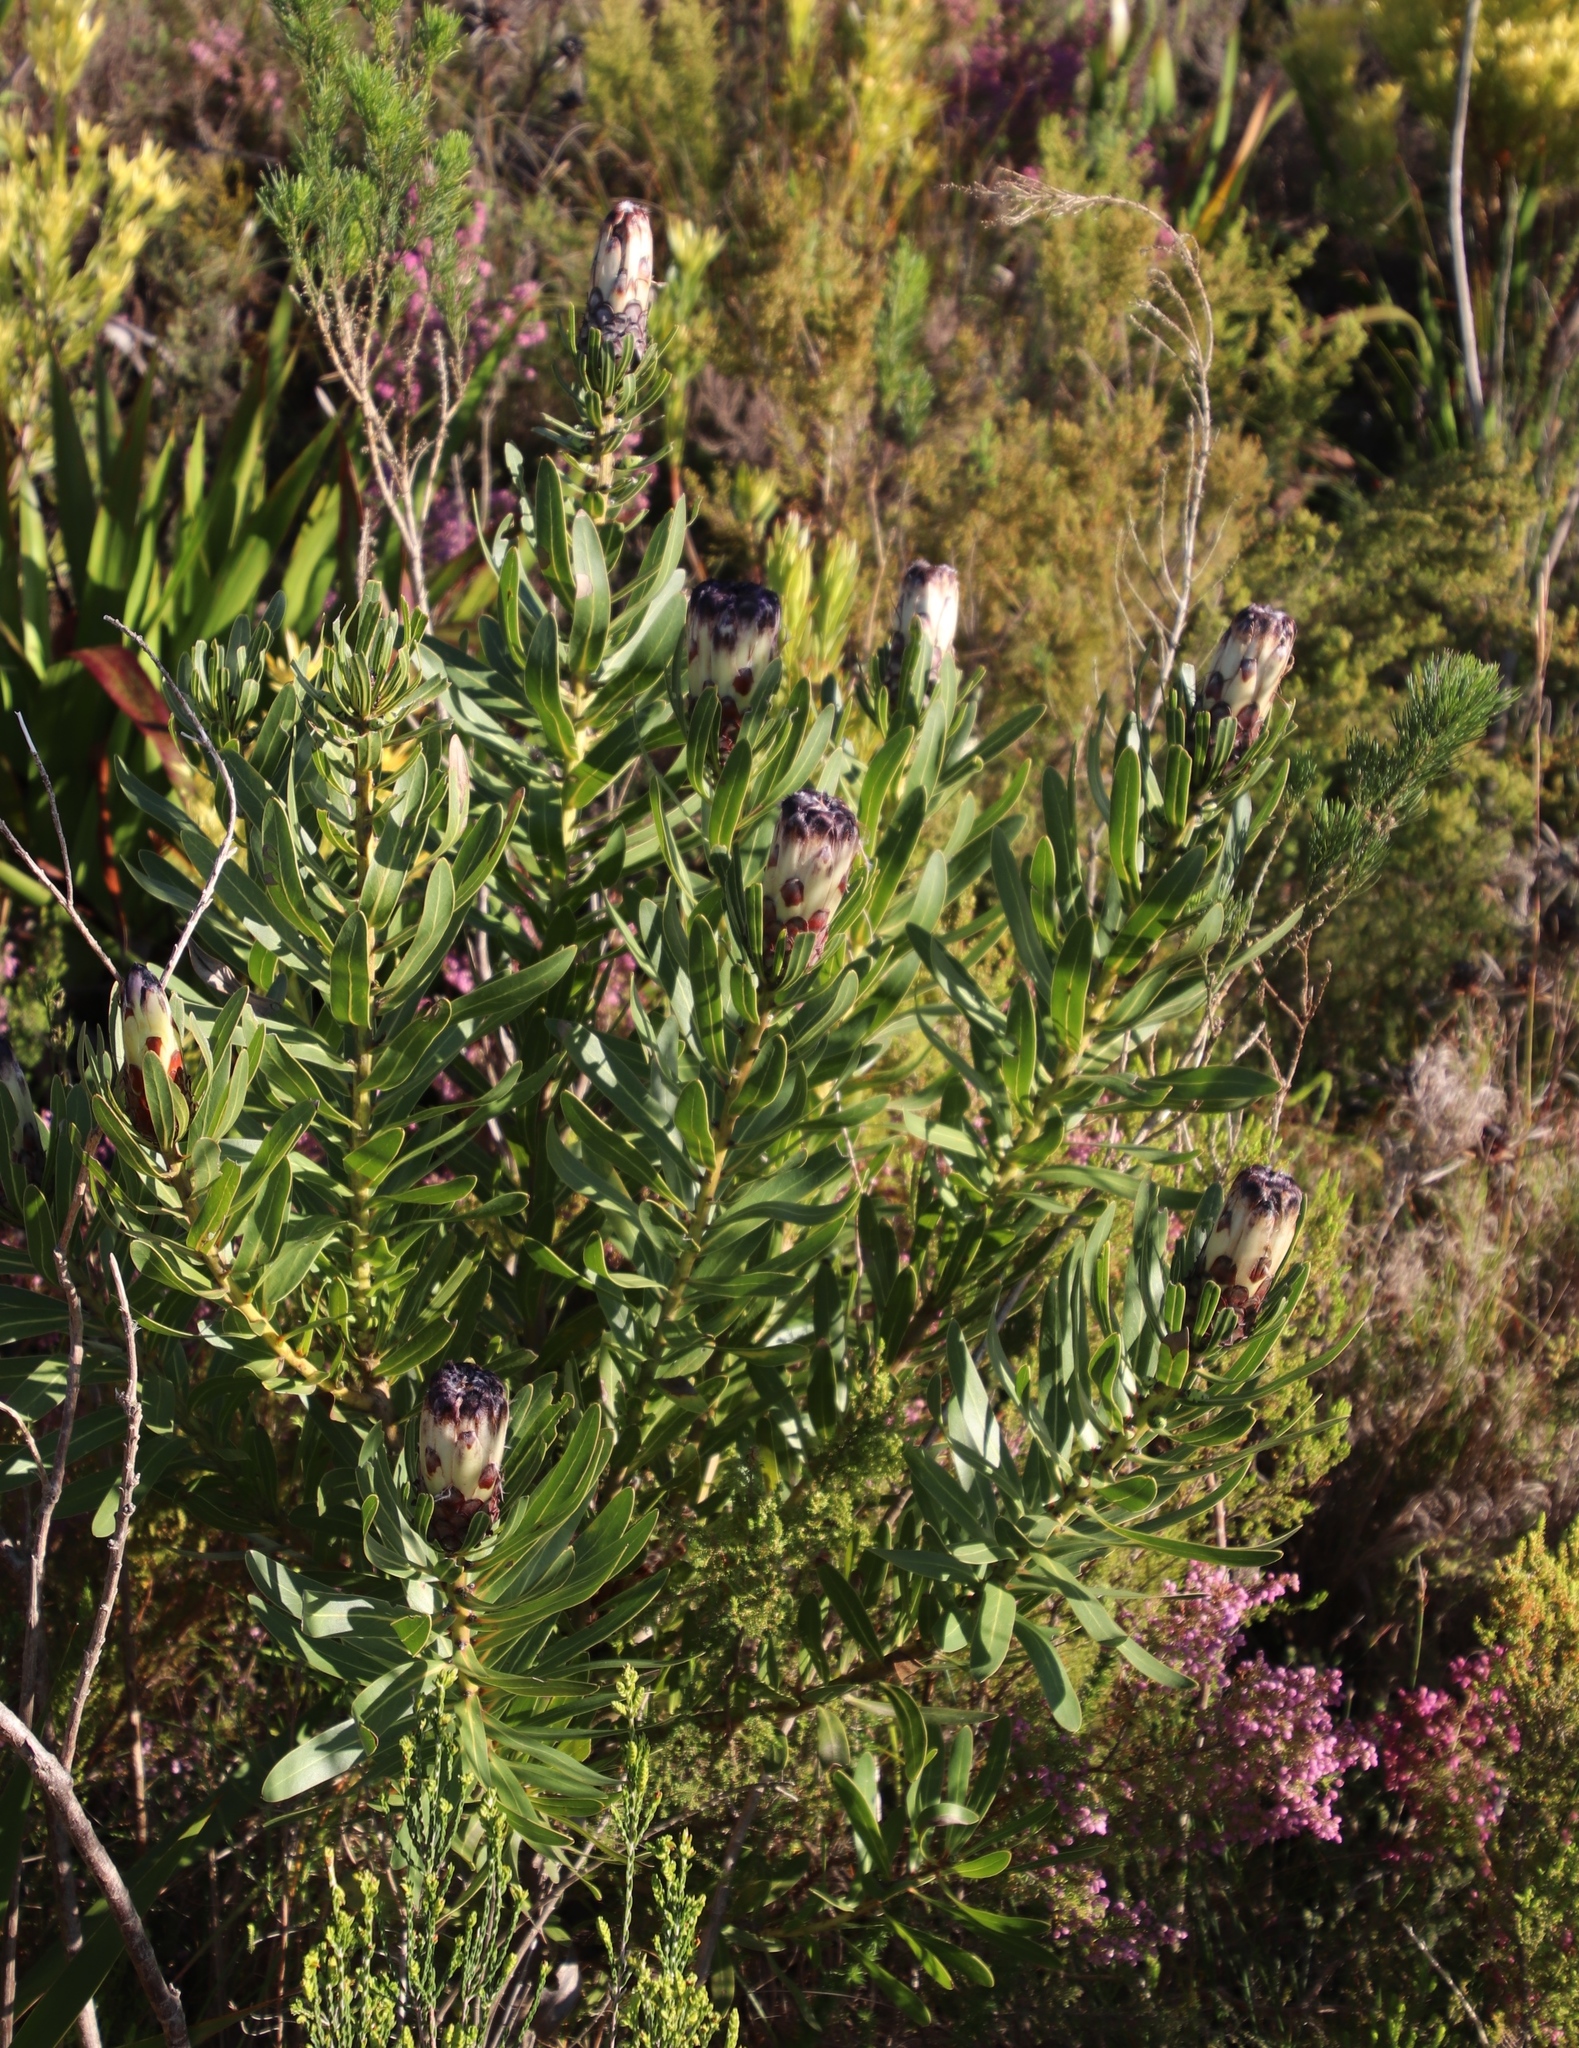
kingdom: Plantae
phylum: Tracheophyta
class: Magnoliopsida
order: Proteales
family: Proteaceae
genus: Protea
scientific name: Protea lepidocarpodendron
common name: Black-bearded protea
